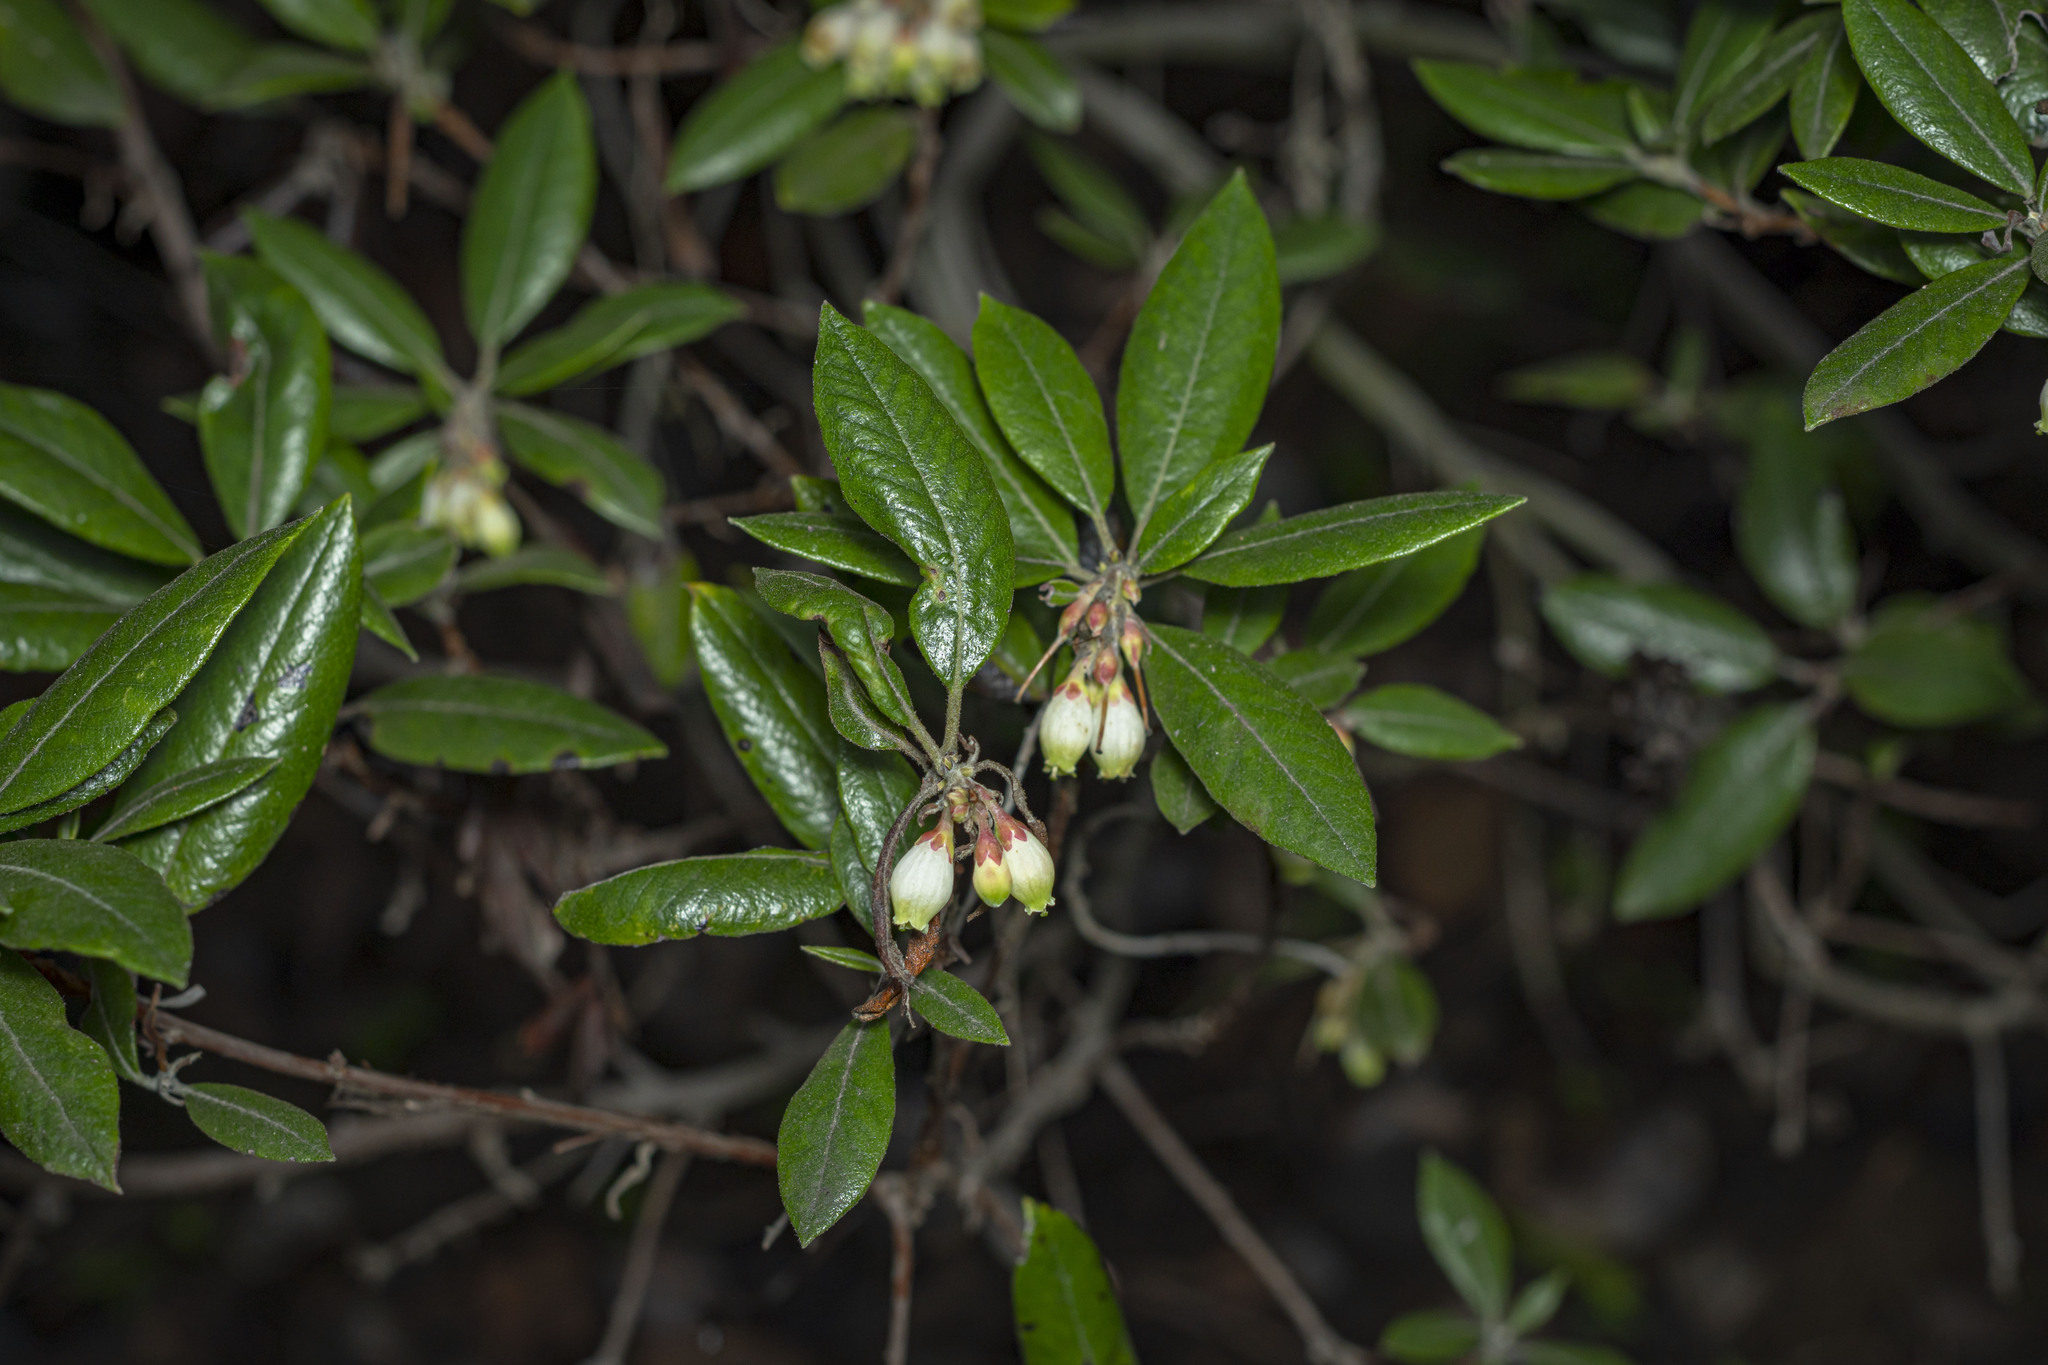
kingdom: Plantae
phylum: Tracheophyta
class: Magnoliopsida
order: Ericales
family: Ericaceae
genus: Arctostaphylos
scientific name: Arctostaphylos bicolor
